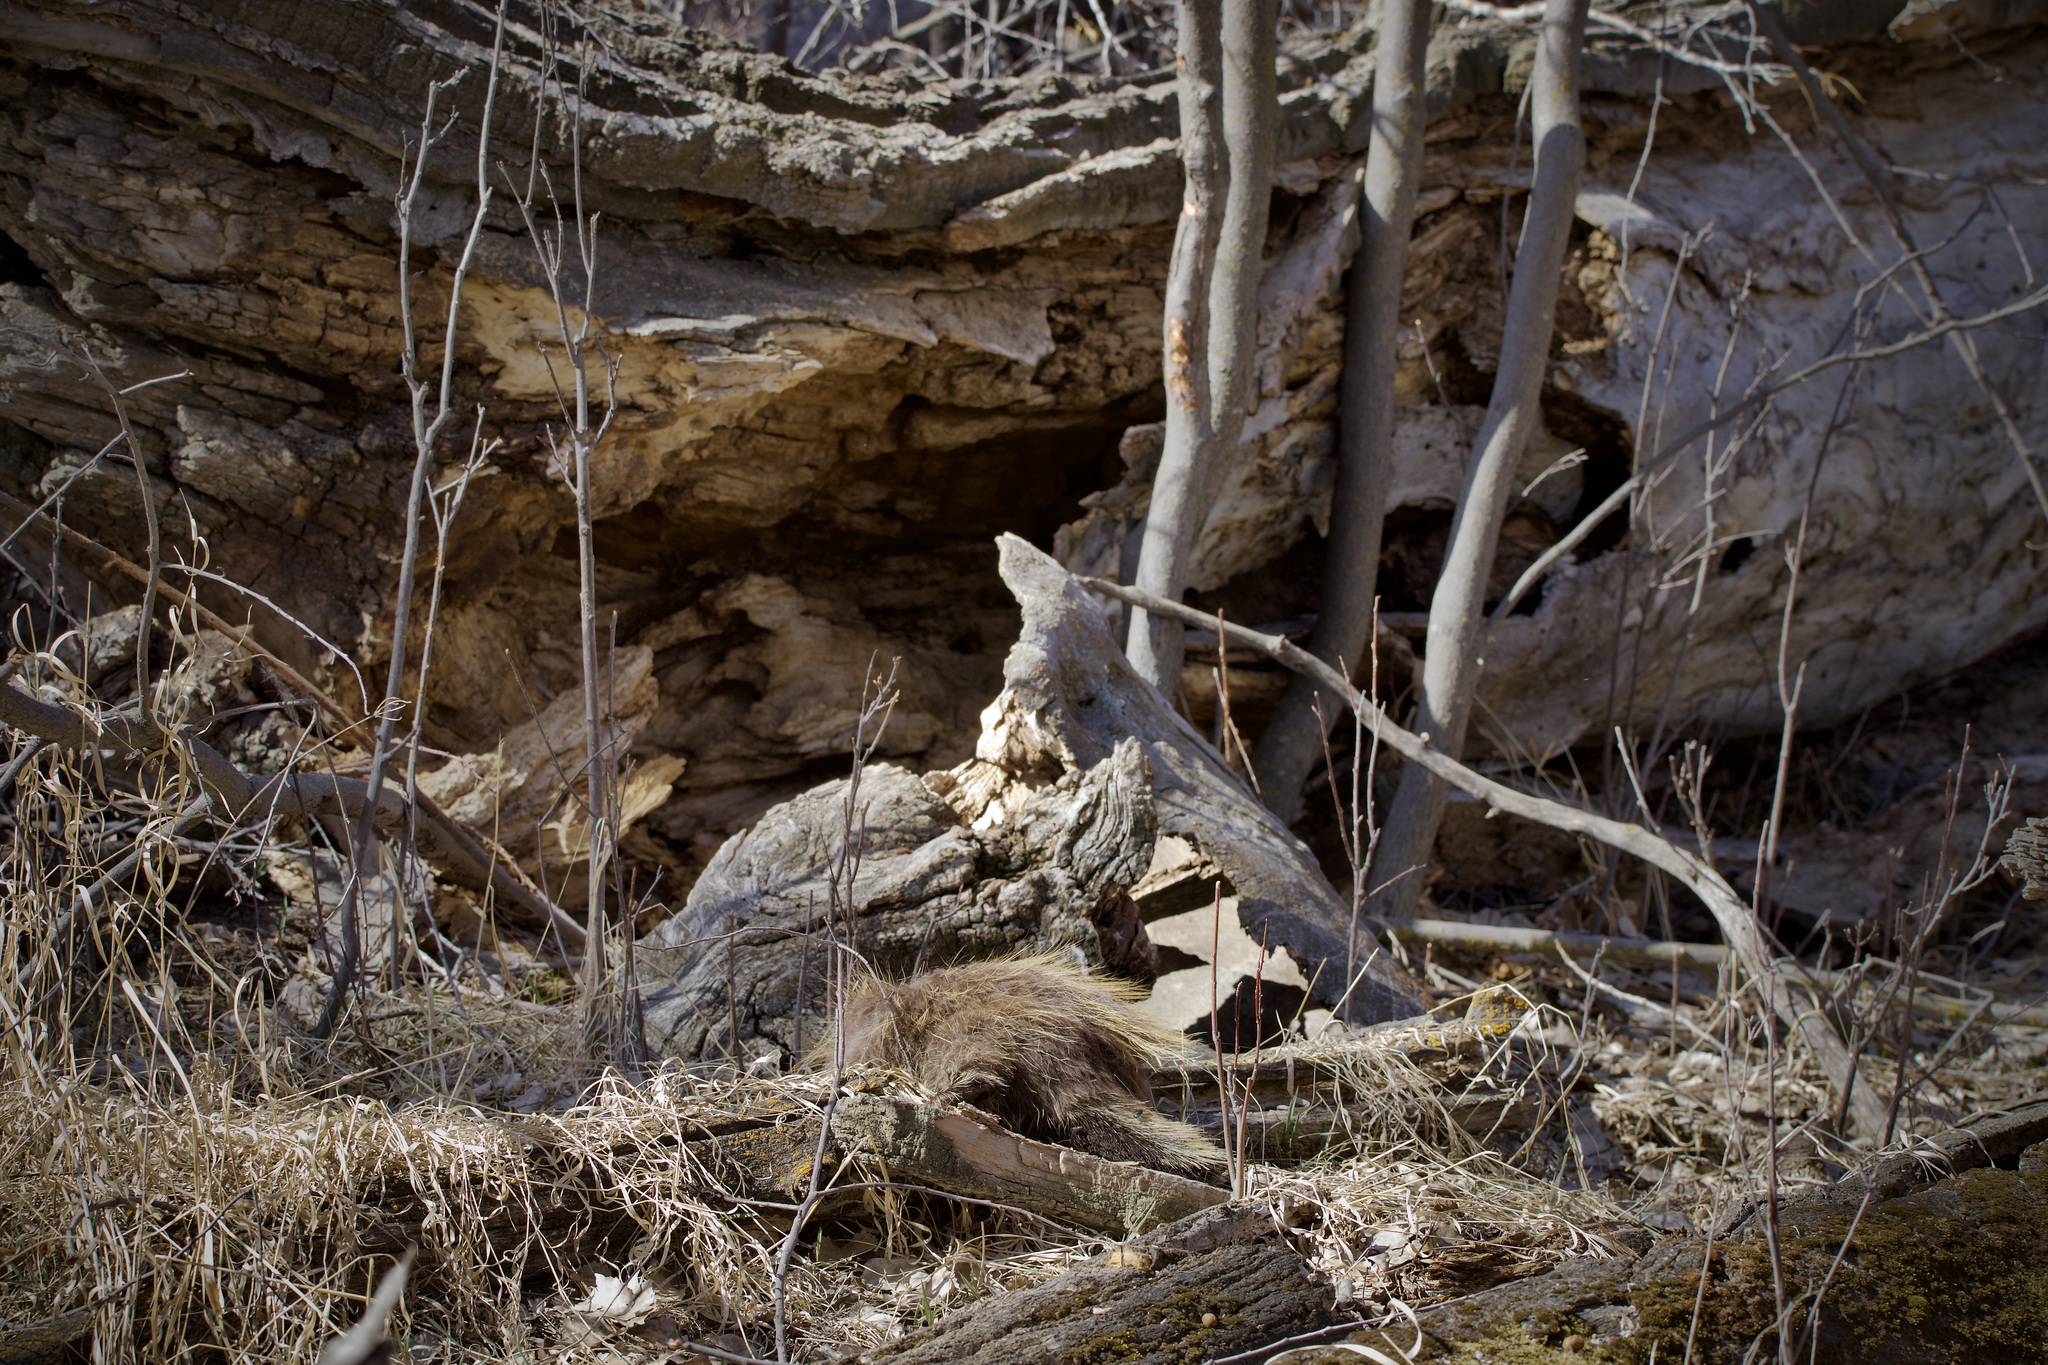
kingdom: Animalia
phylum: Chordata
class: Mammalia
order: Rodentia
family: Erethizontidae
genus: Erethizon
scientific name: Erethizon dorsatus
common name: North american porcupine
